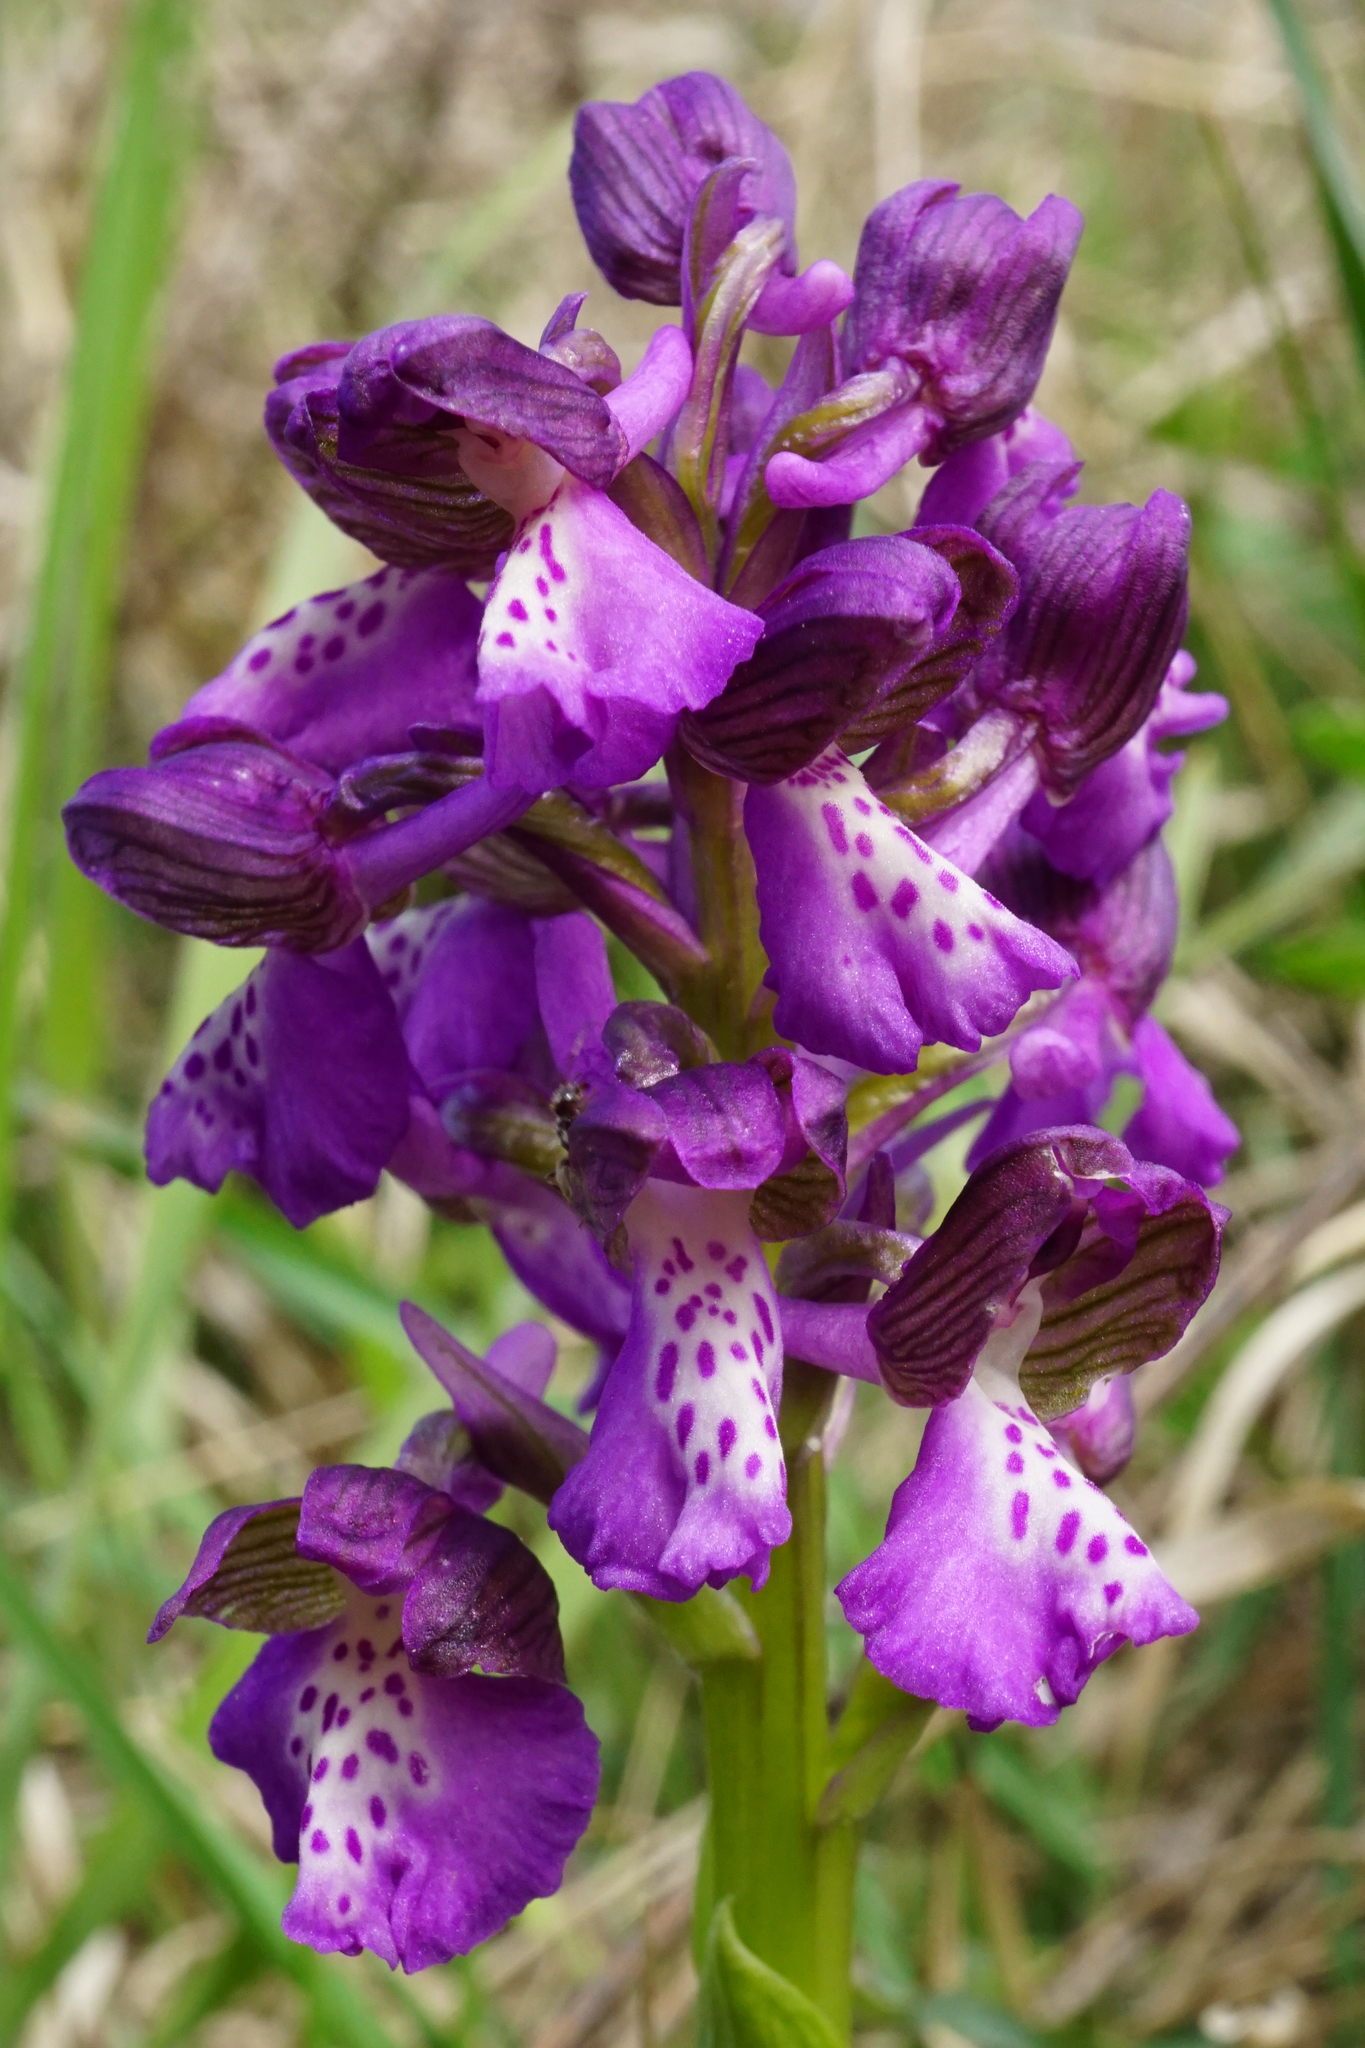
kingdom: Plantae
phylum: Tracheophyta
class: Liliopsida
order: Asparagales
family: Orchidaceae
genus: Anacamptis
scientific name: Anacamptis morio
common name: Green-winged orchid
